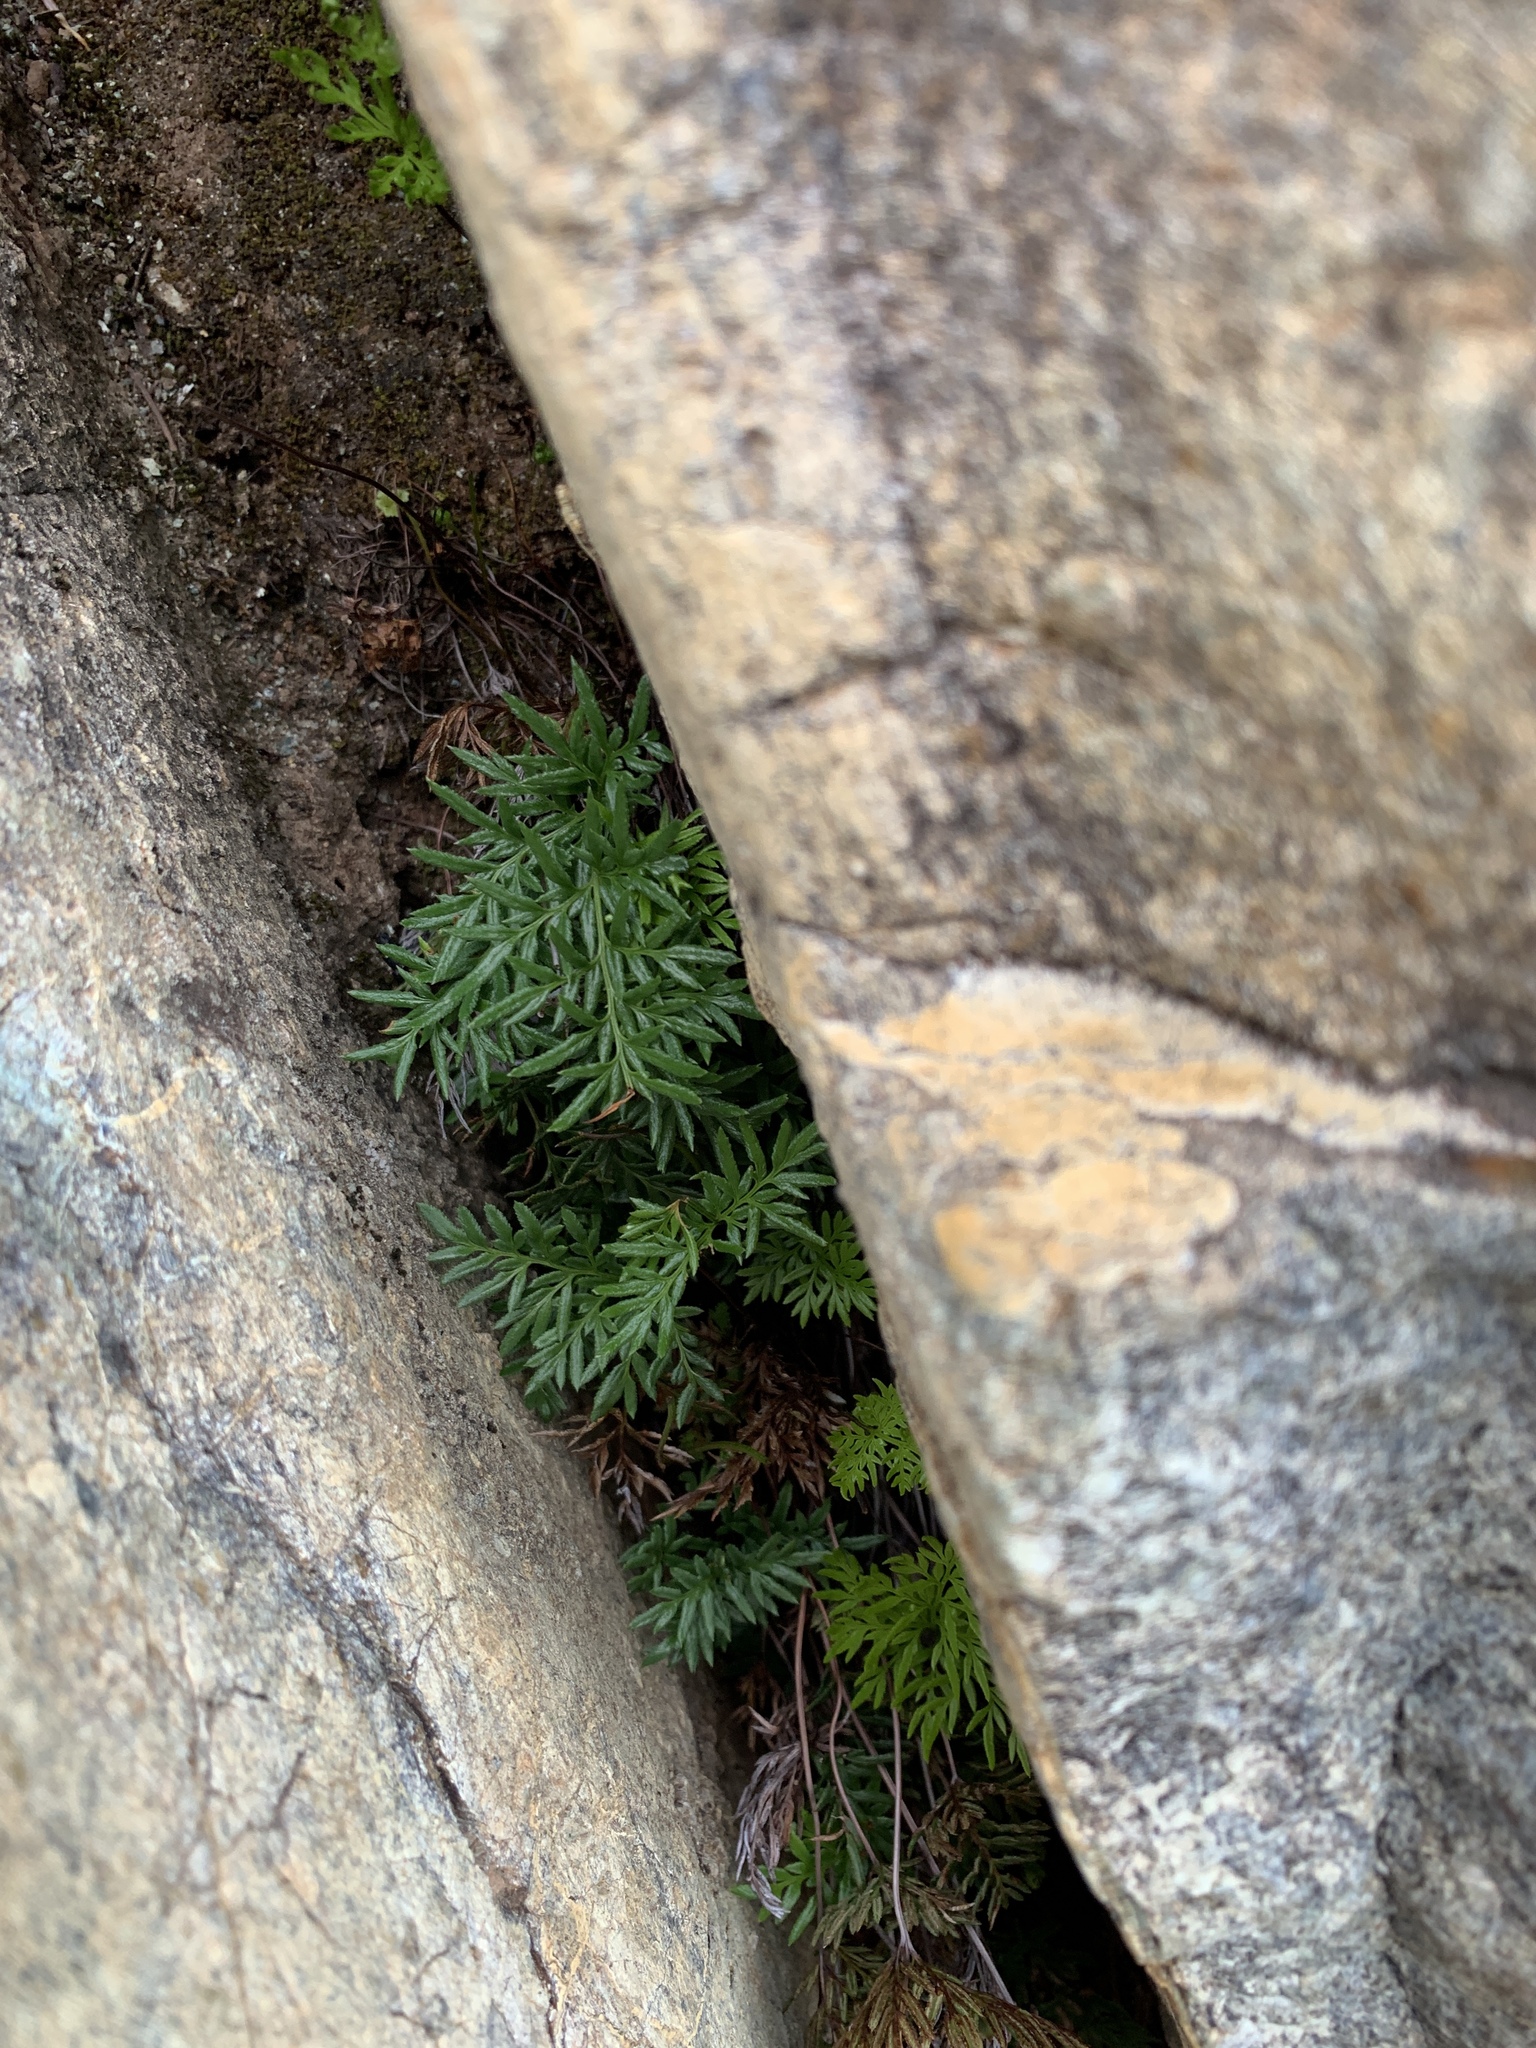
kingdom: Plantae
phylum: Tracheophyta
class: Polypodiopsida
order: Polypodiales
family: Pteridaceae
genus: Aspidotis
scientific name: Aspidotis densa
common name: Indian's dream
